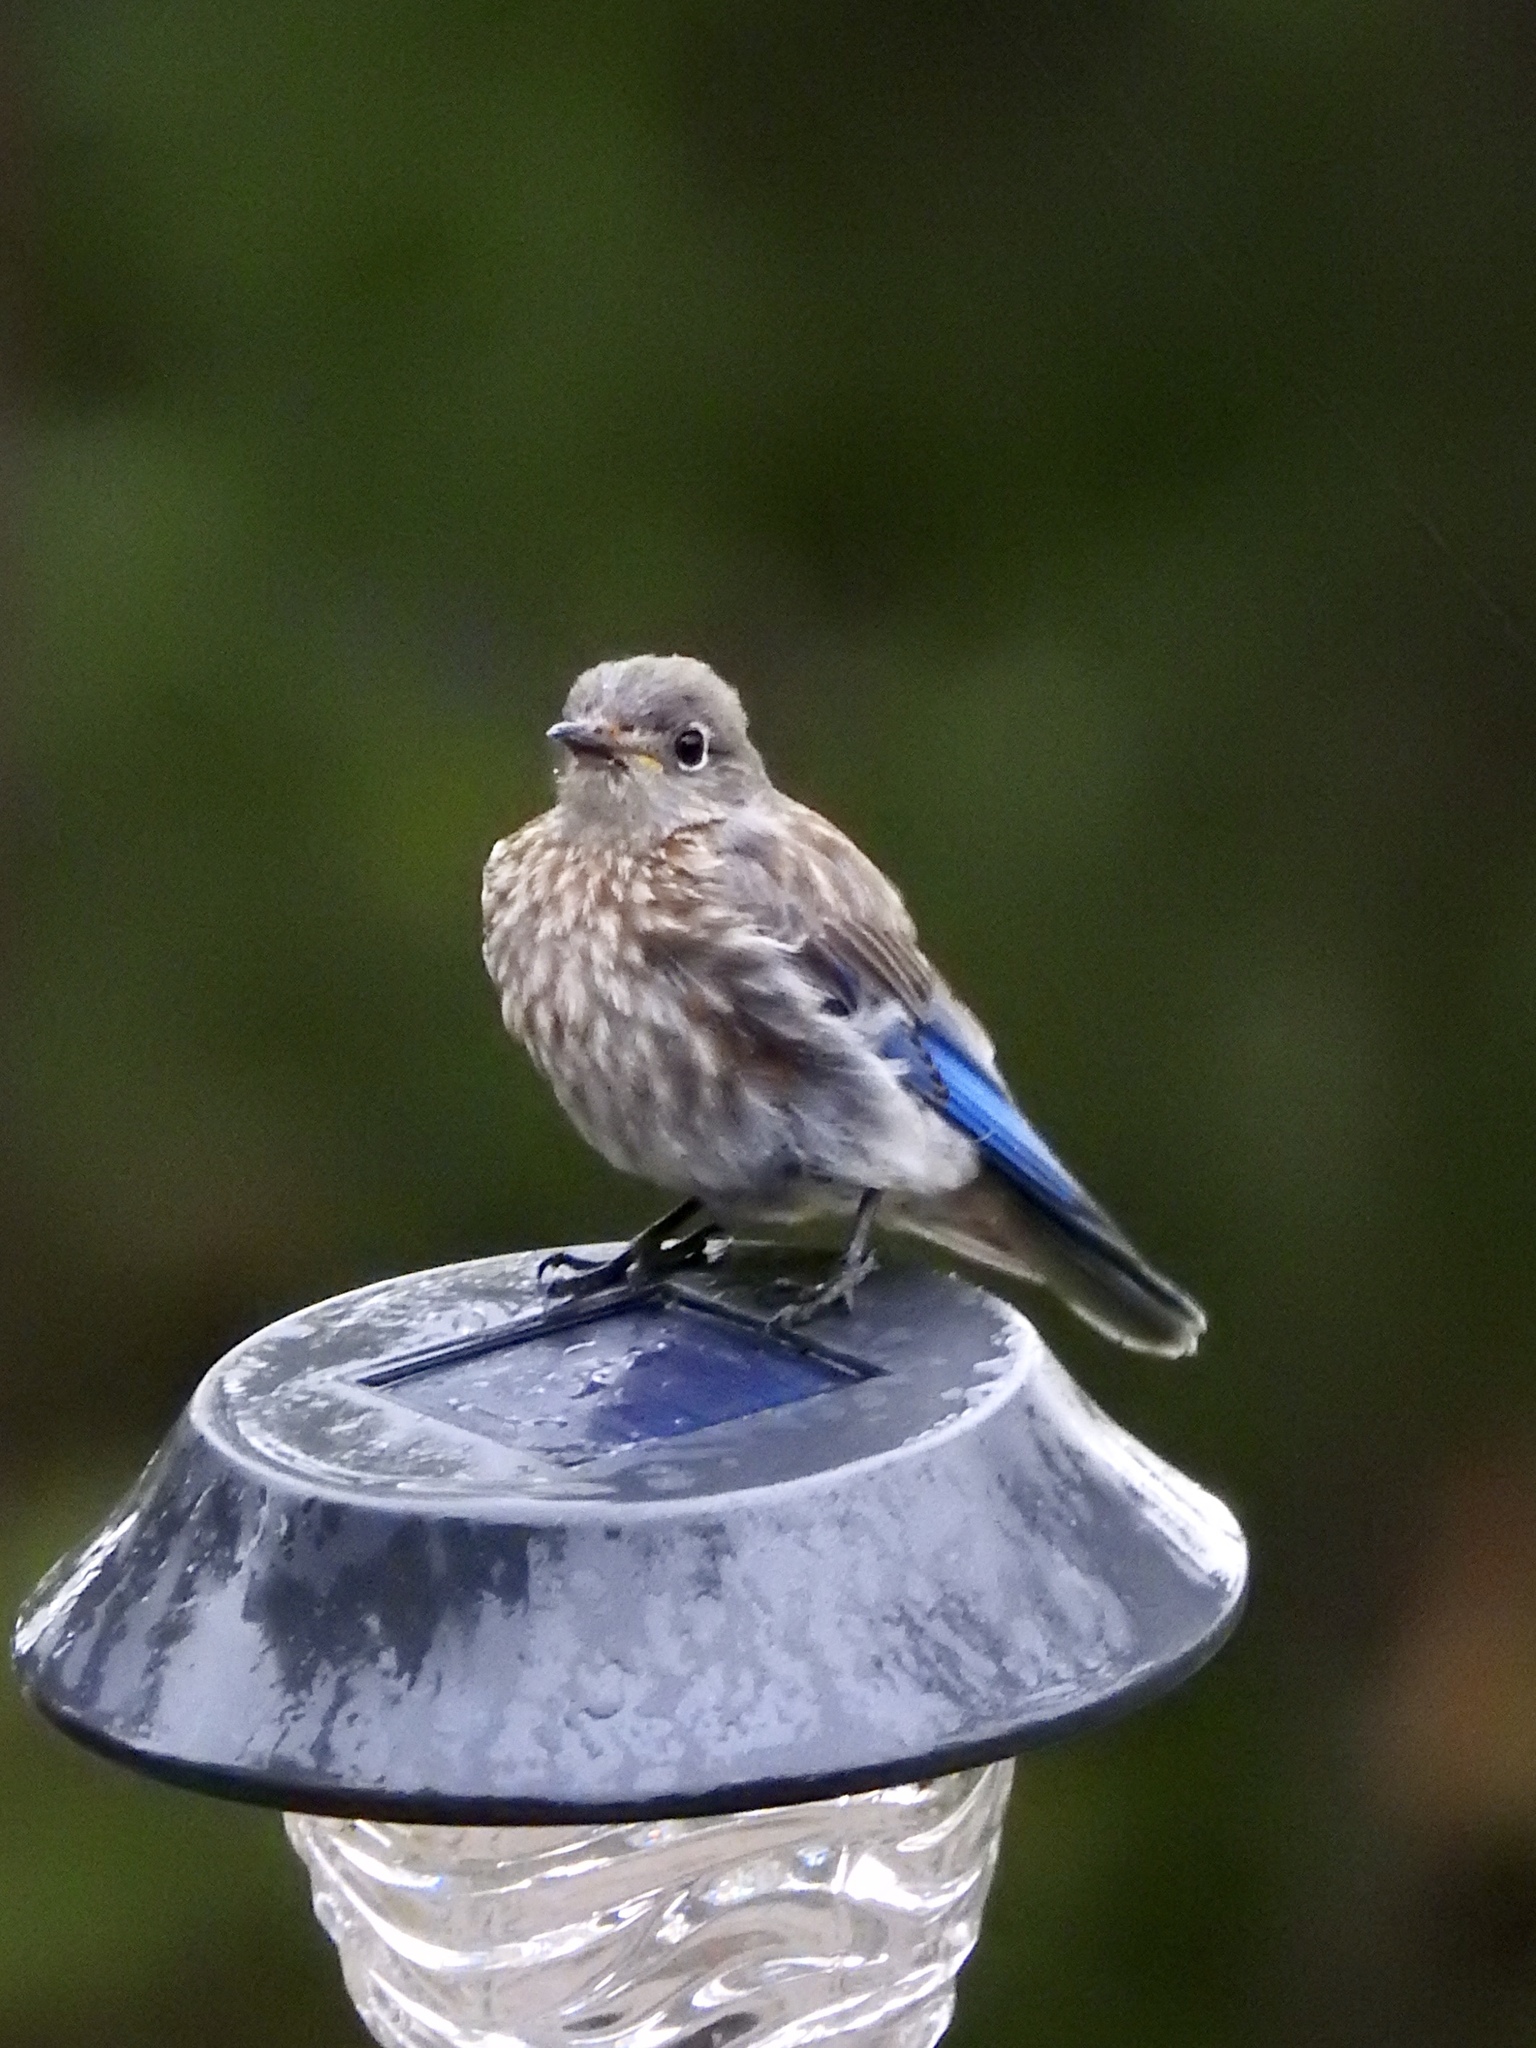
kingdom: Animalia
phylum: Chordata
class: Aves
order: Passeriformes
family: Turdidae
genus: Sialia
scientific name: Sialia mexicana
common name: Western bluebird
